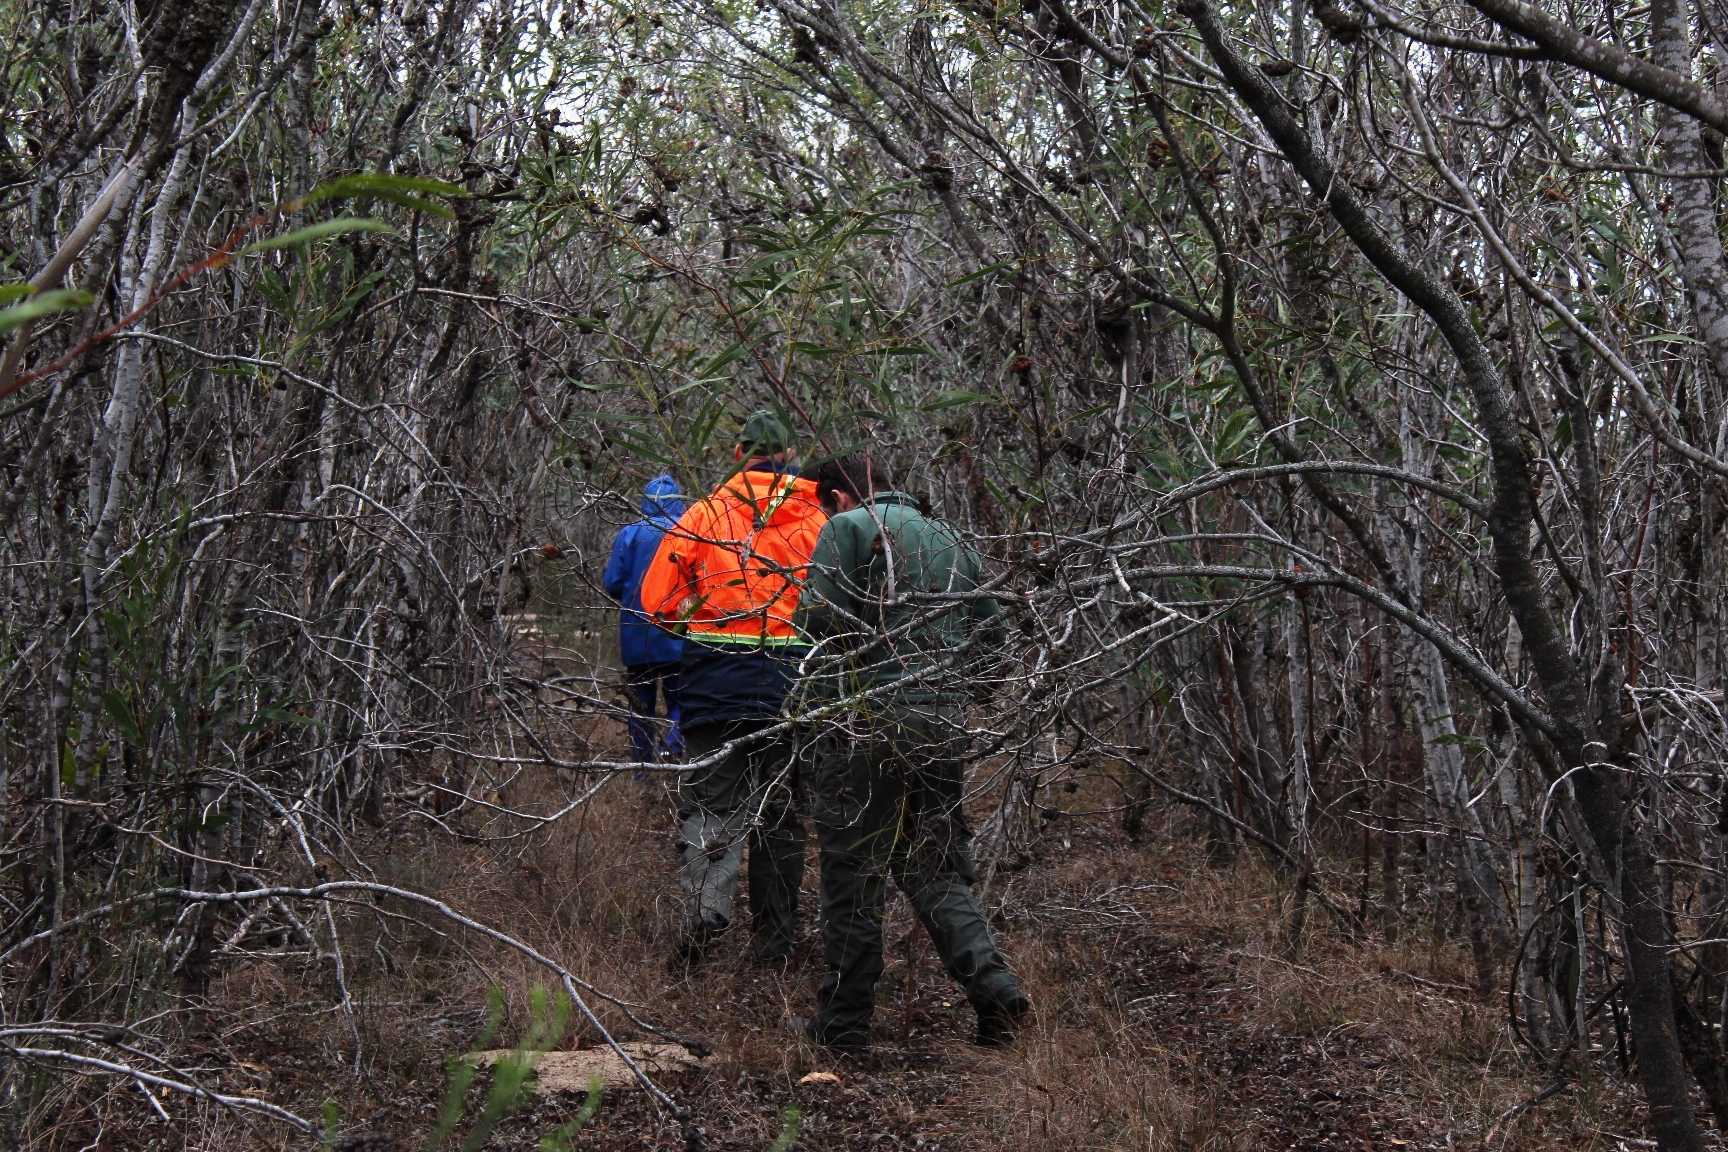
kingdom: Plantae
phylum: Tracheophyta
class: Magnoliopsida
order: Fabales
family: Fabaceae
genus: Acacia
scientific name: Acacia saligna
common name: Orange wattle
